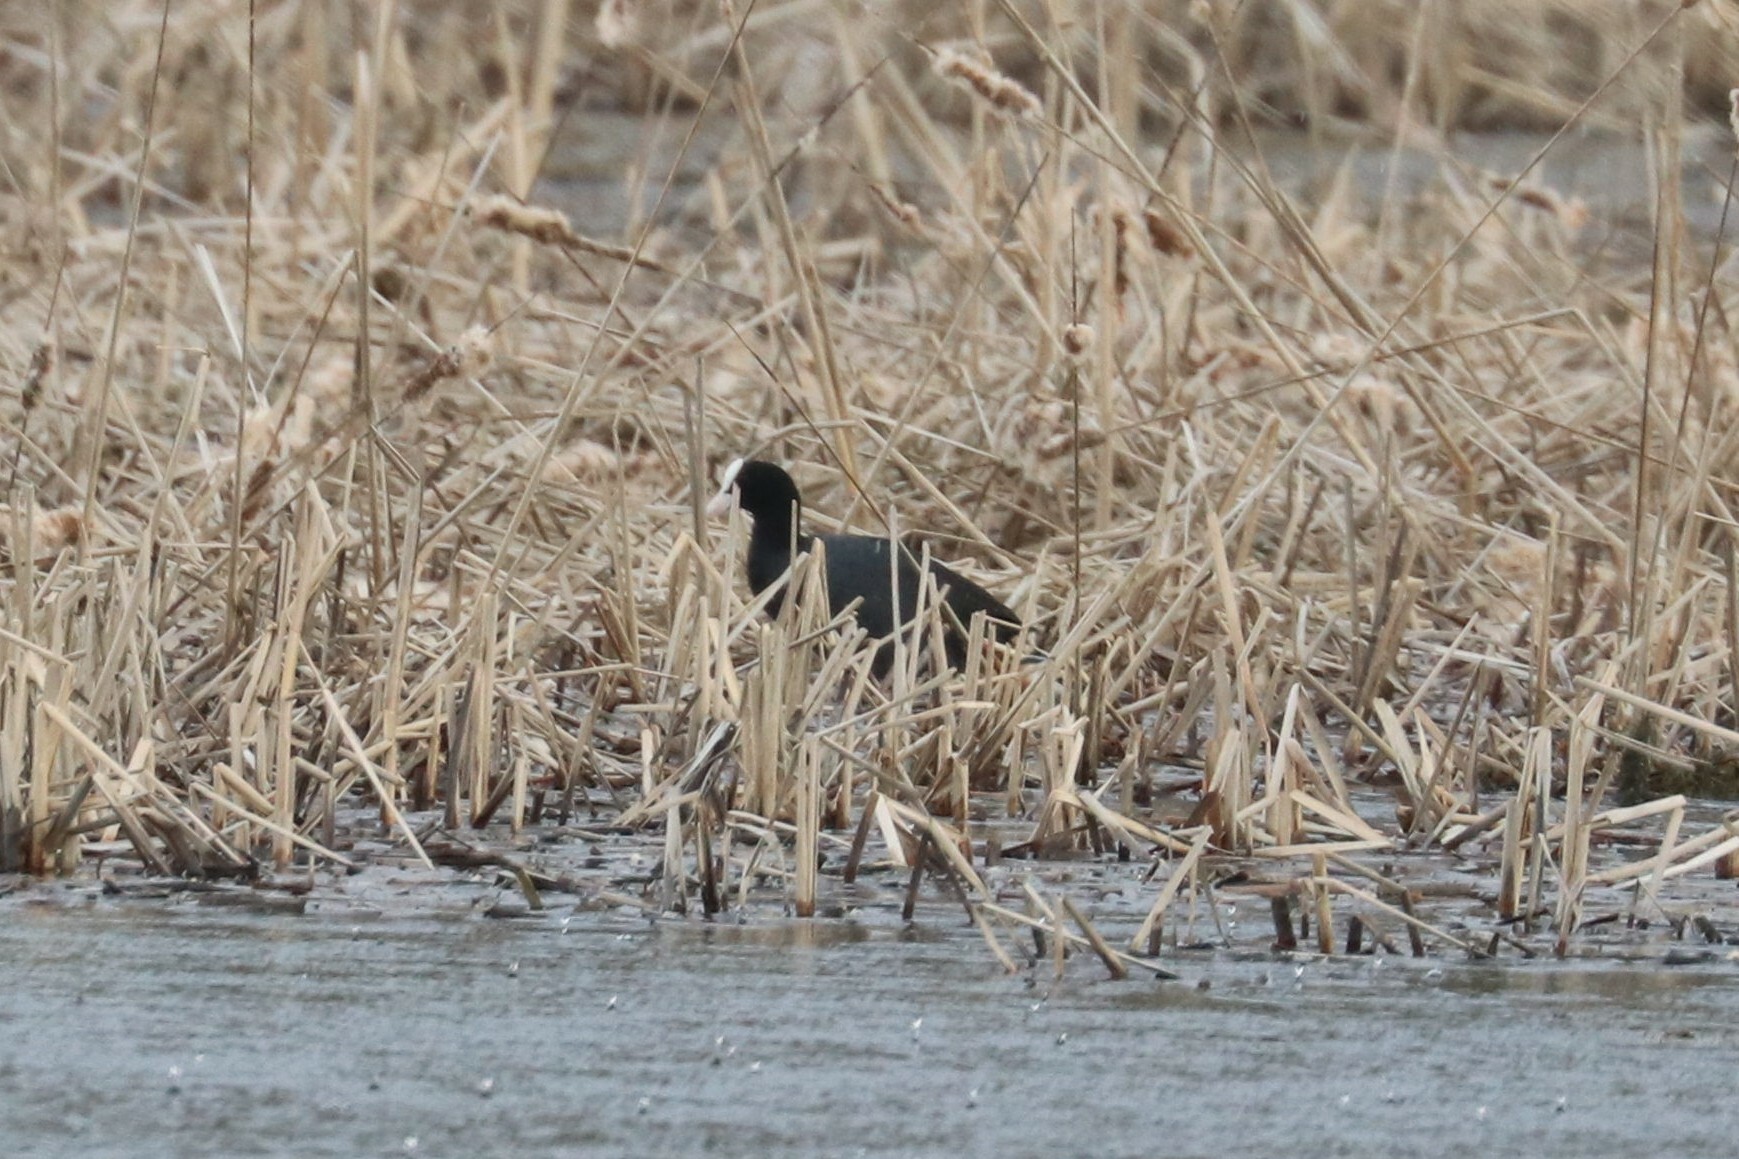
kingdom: Animalia
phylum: Chordata
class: Aves
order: Gruiformes
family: Rallidae
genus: Fulica
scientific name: Fulica atra
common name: Eurasian coot
